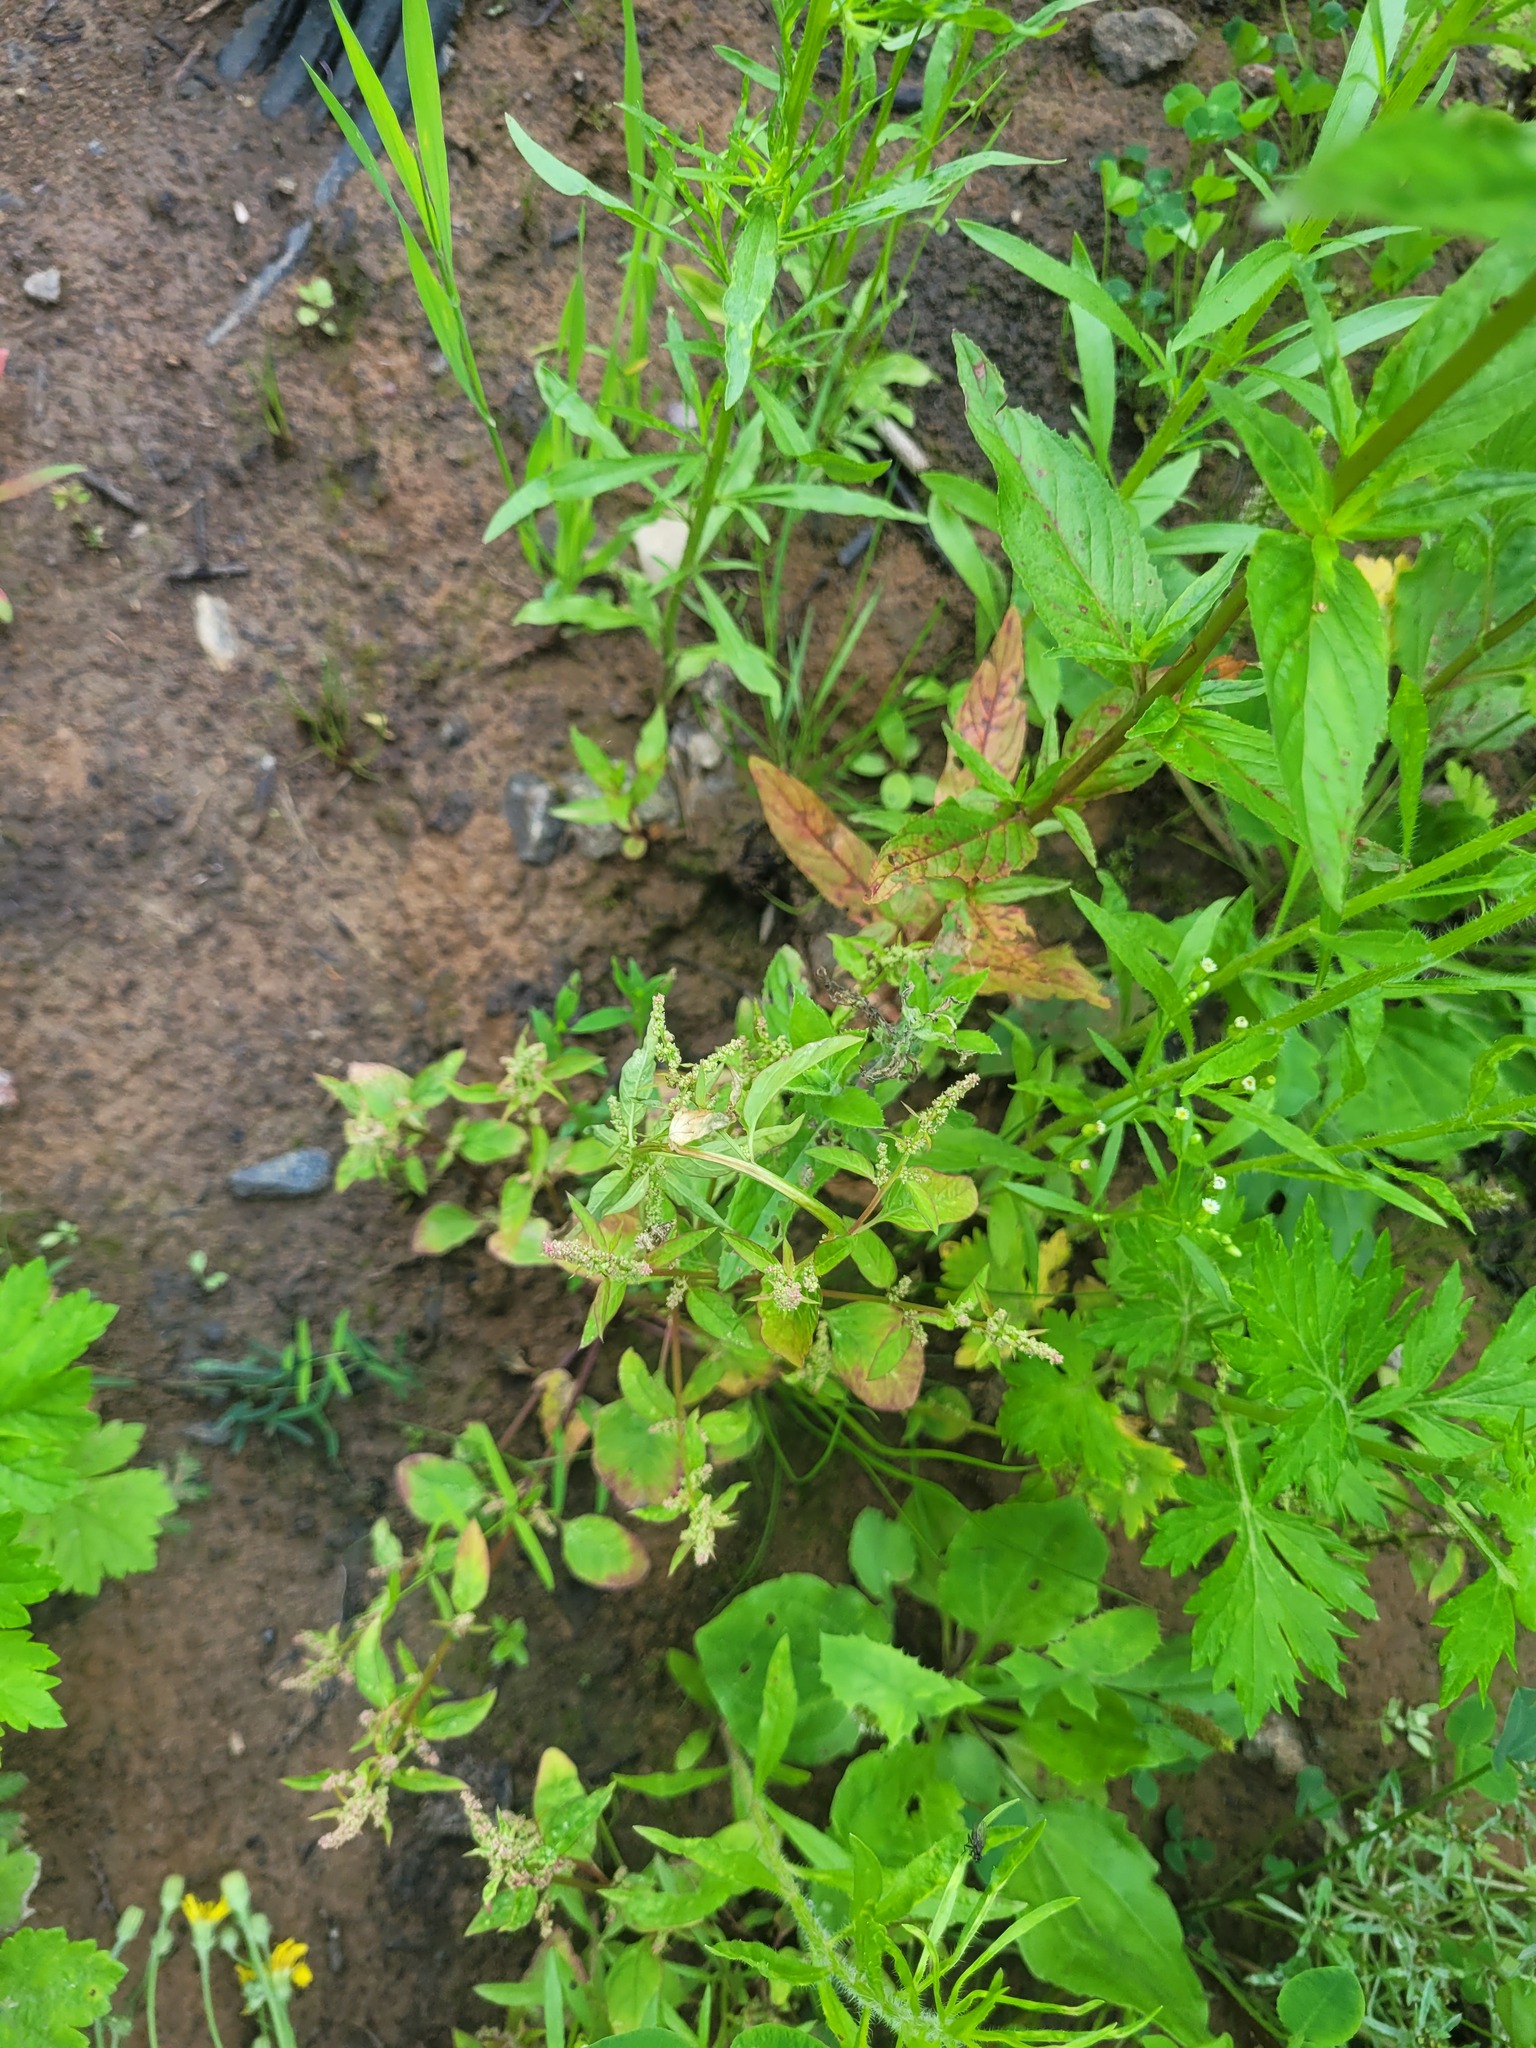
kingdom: Plantae
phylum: Tracheophyta
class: Magnoliopsida
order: Caryophyllales
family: Amaranthaceae
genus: Lipandra
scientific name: Lipandra polysperma
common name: Many-seed goosefoot
